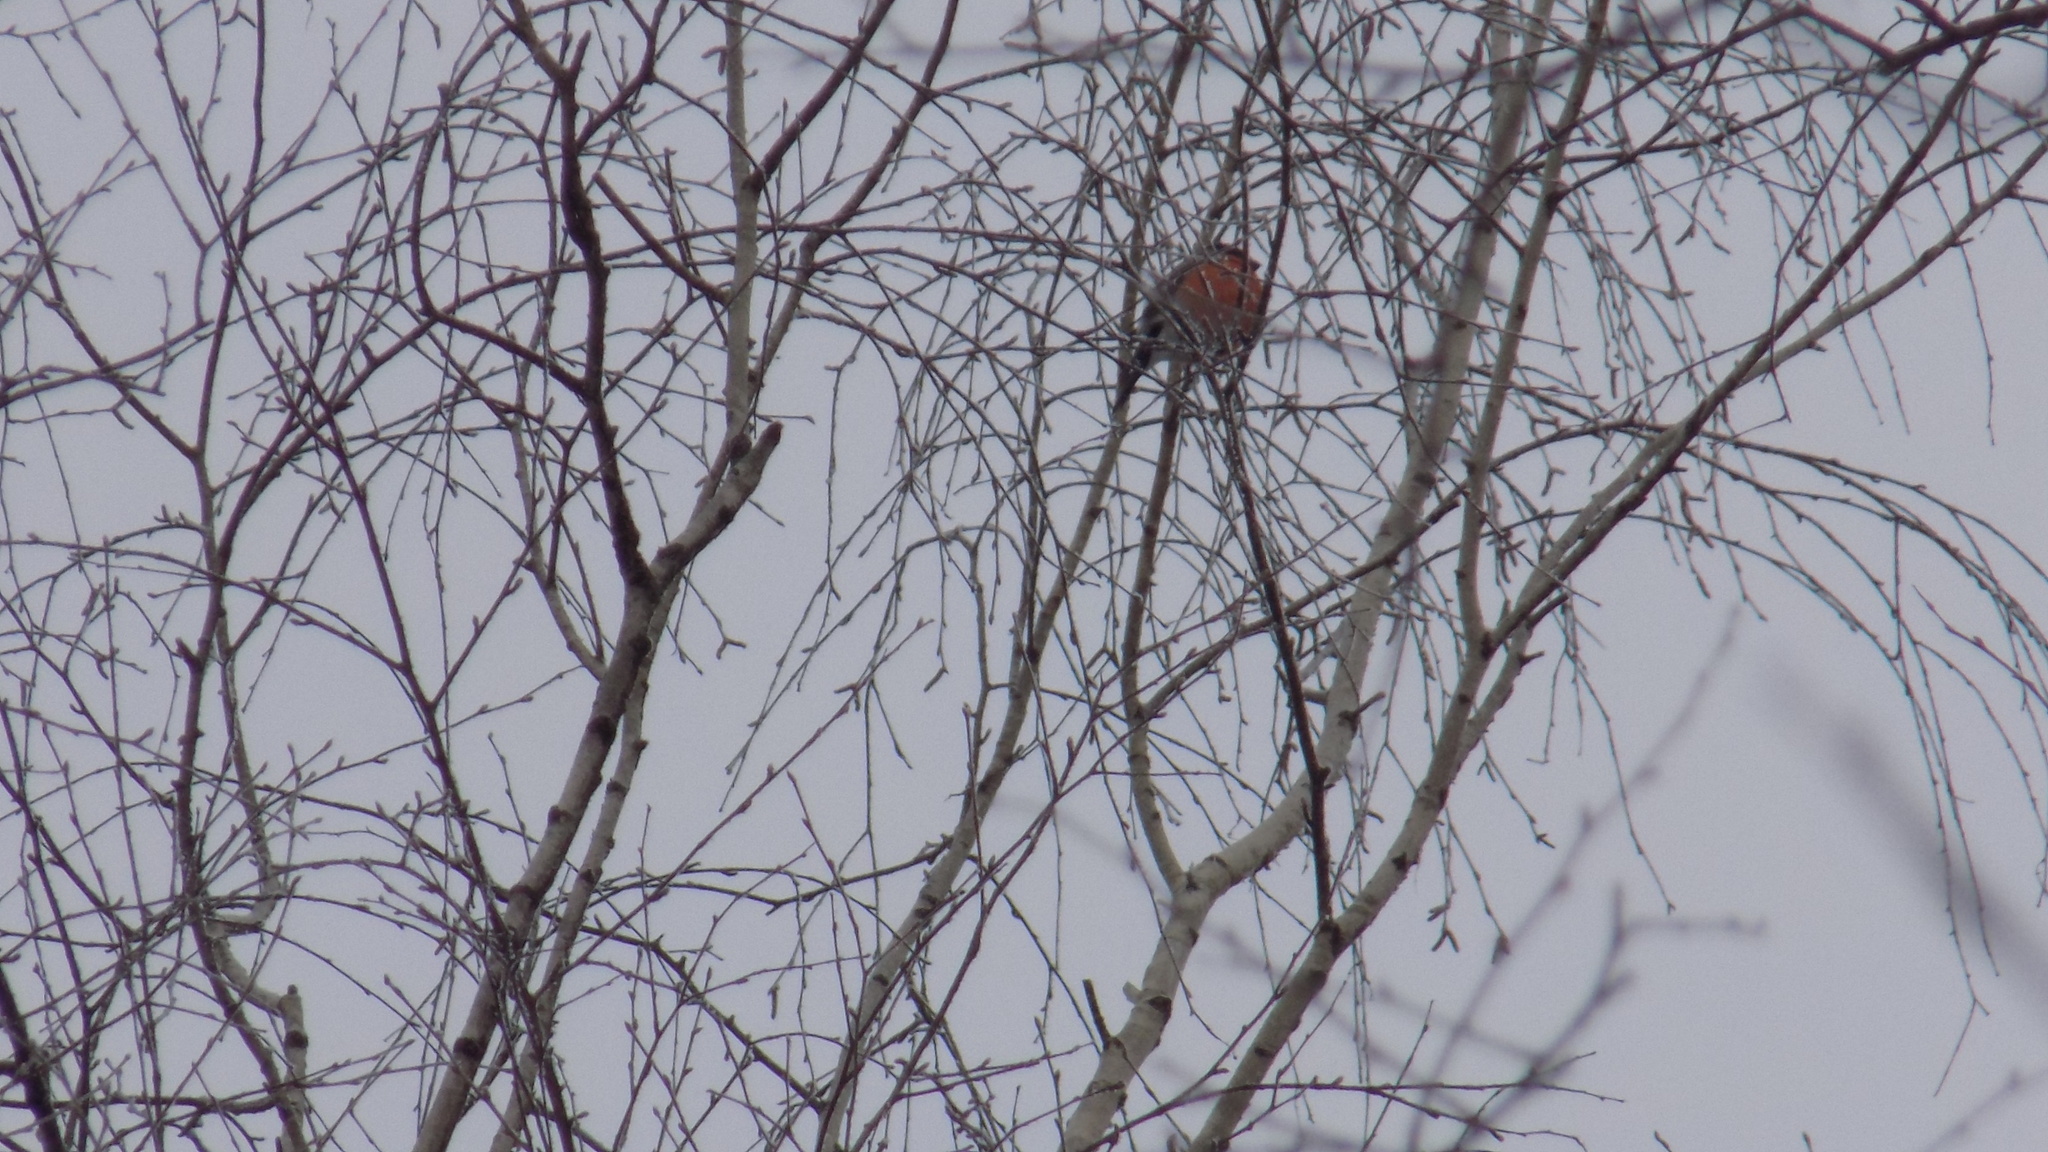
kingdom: Animalia
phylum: Chordata
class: Aves
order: Passeriformes
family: Fringillidae
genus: Pyrrhula
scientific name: Pyrrhula pyrrhula
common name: Eurasian bullfinch
